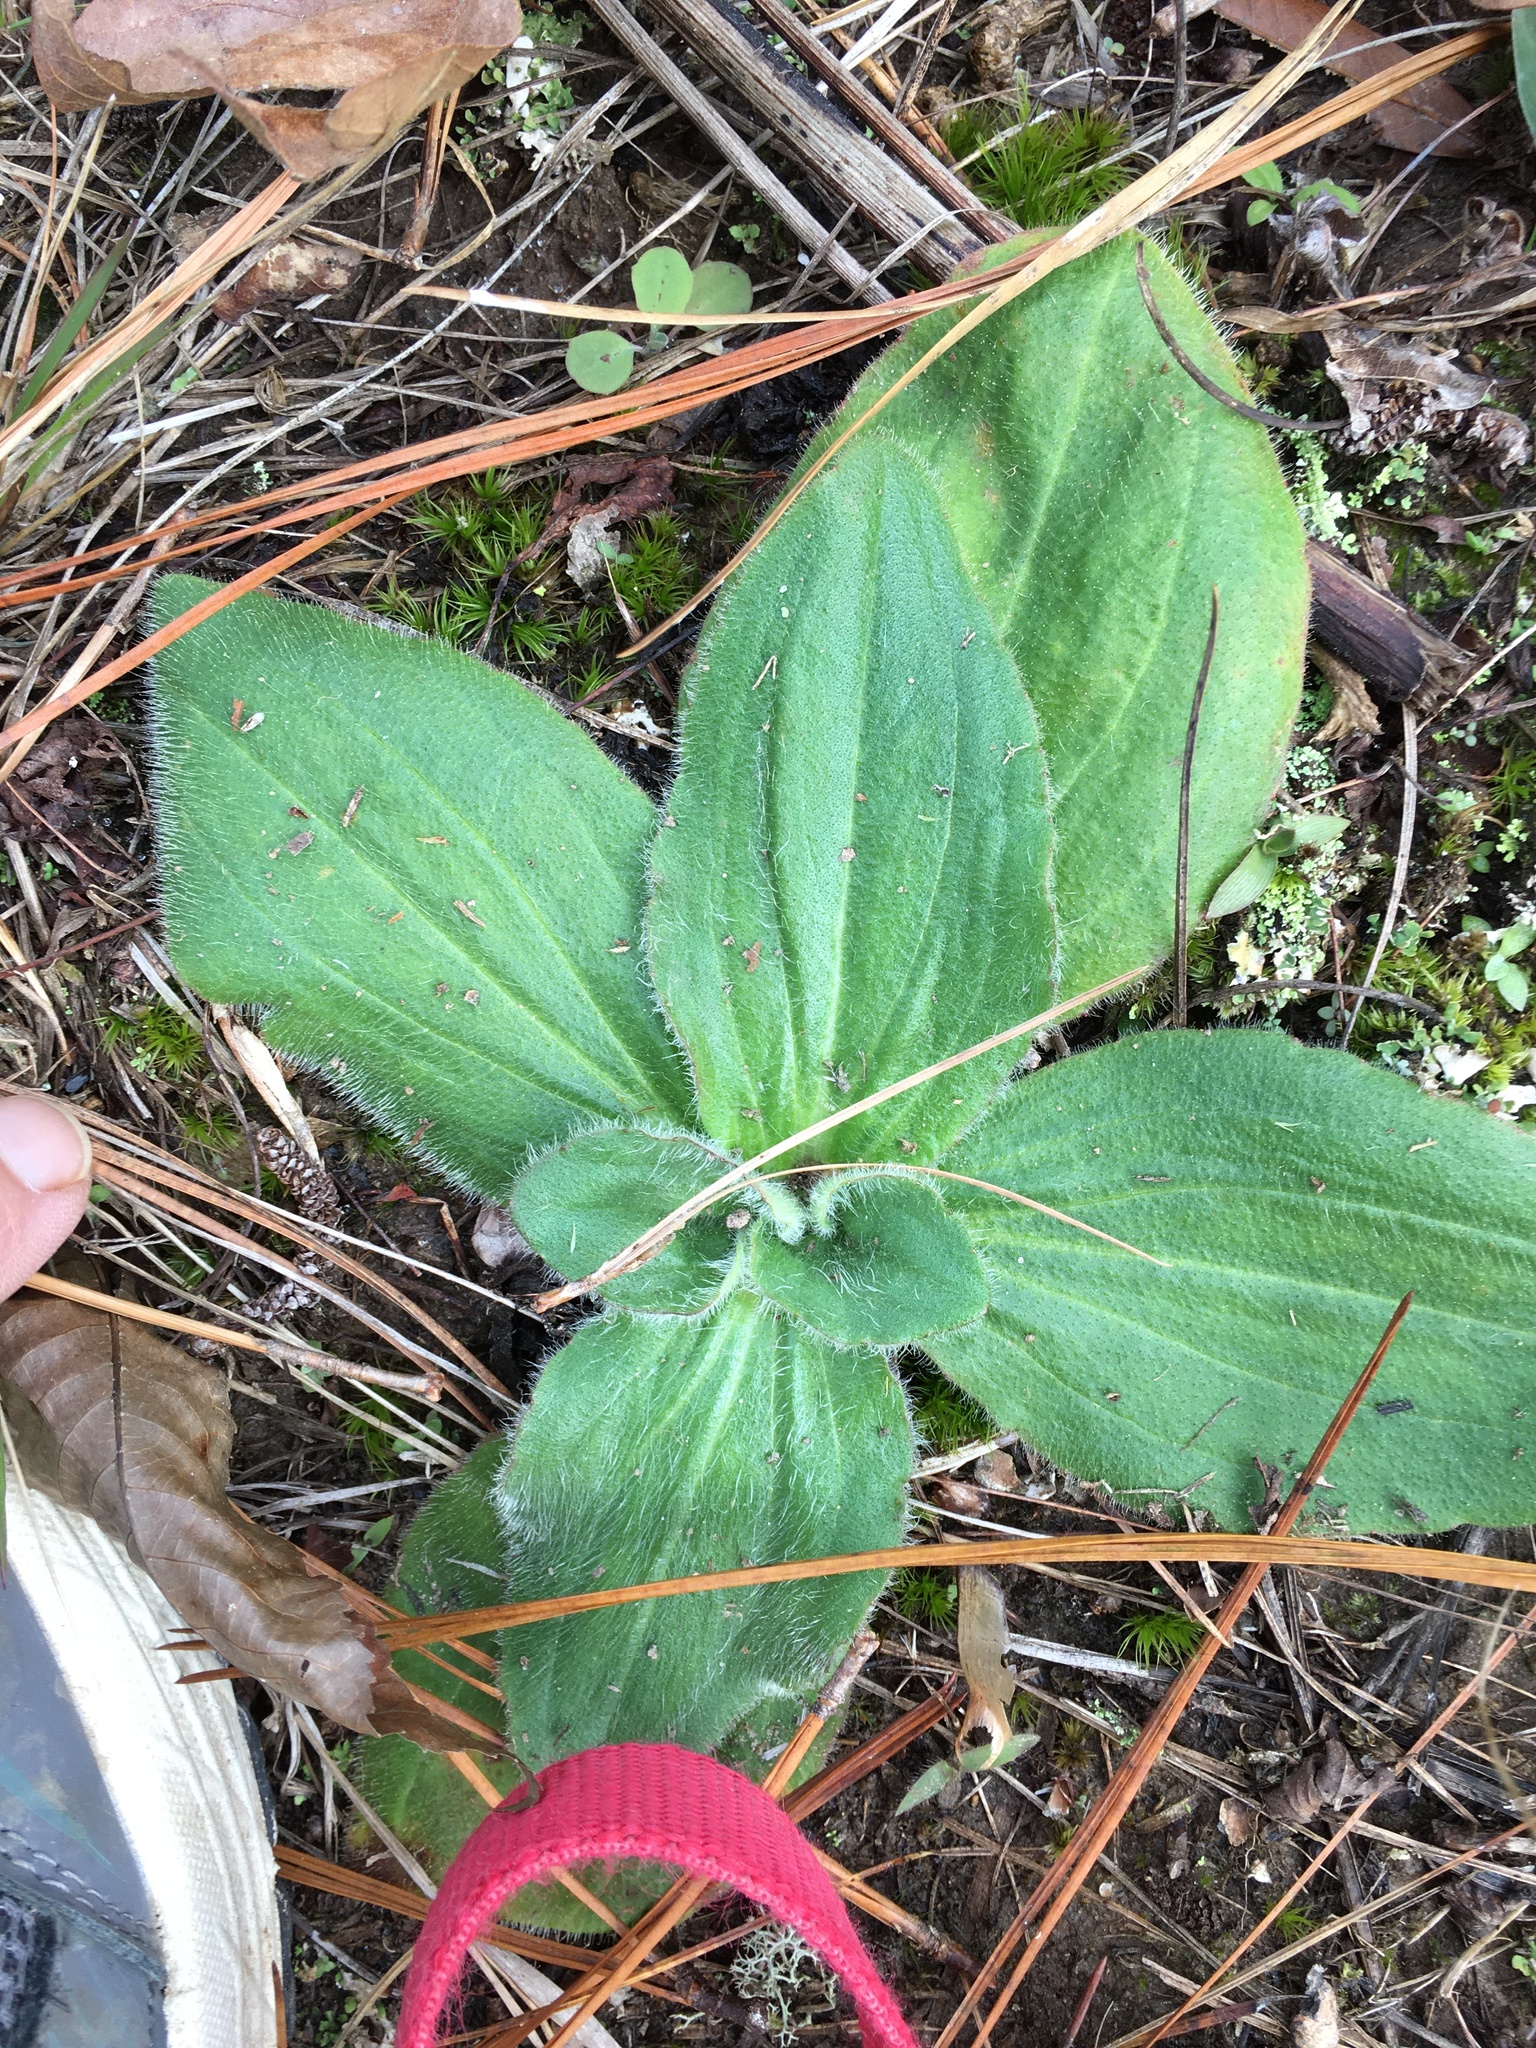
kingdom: Plantae
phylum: Tracheophyta
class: Magnoliopsida
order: Asterales
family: Asteraceae
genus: Arnica
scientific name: Arnica acaulis
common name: Common leopardbane
